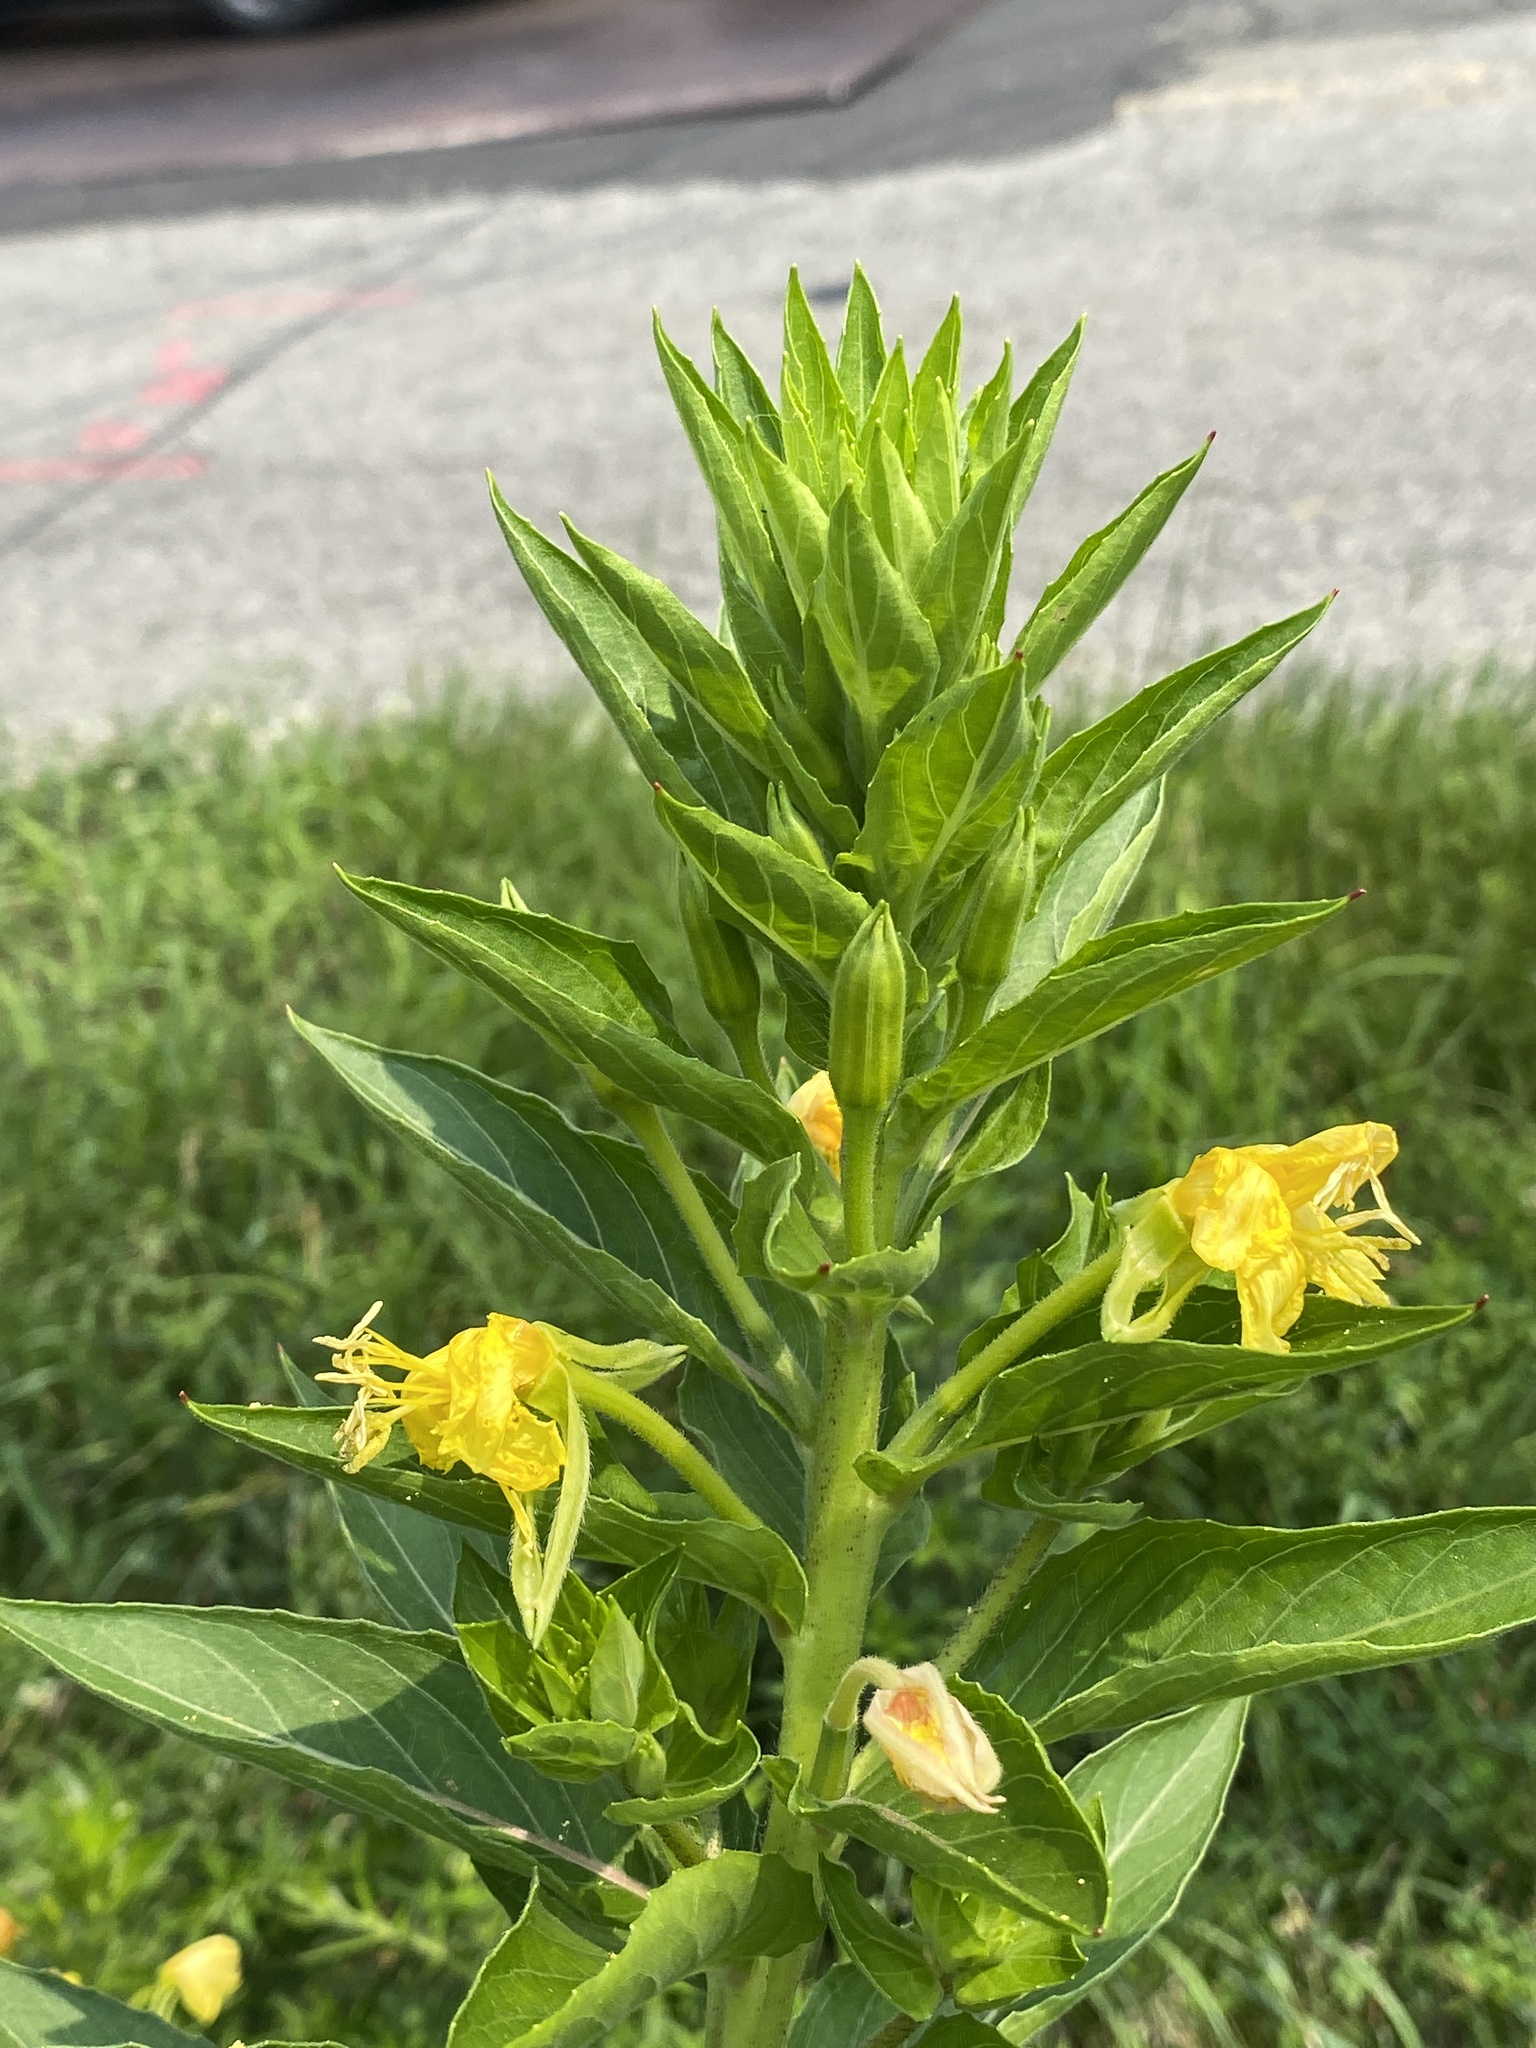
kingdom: Plantae
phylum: Tracheophyta
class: Magnoliopsida
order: Myrtales
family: Onagraceae
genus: Oenothera
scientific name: Oenothera biennis
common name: Common evening-primrose
